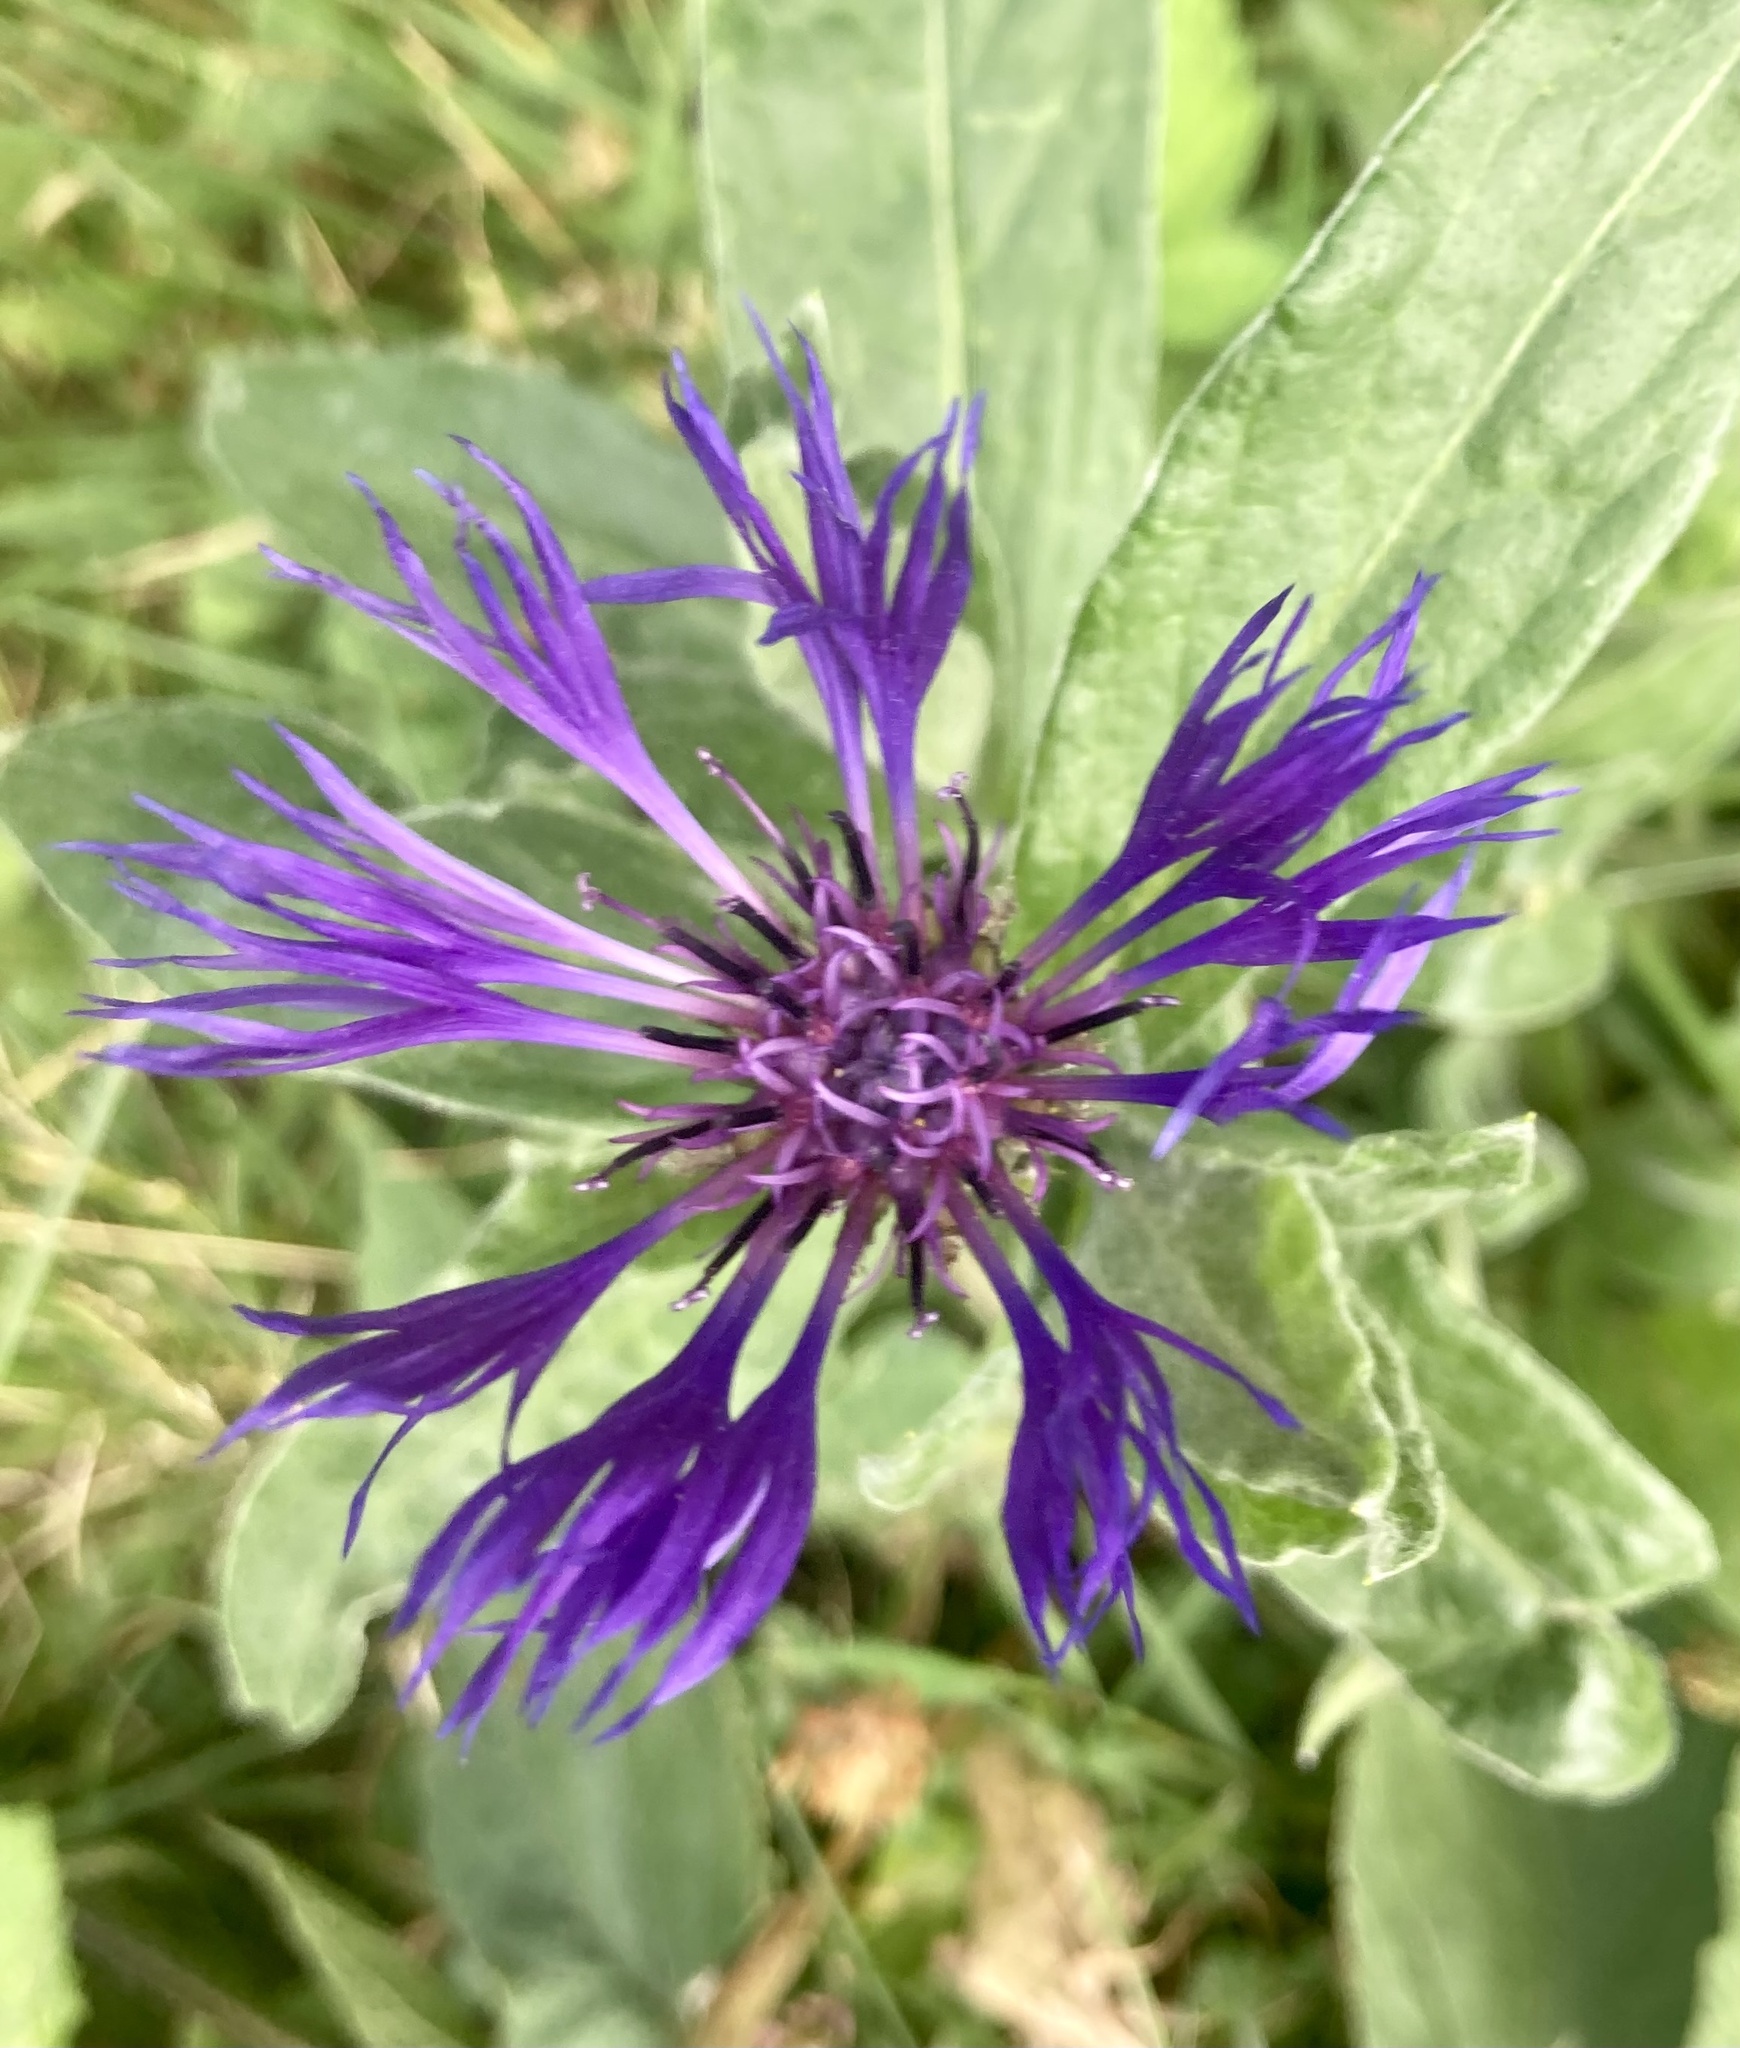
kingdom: Plantae
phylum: Tracheophyta
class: Magnoliopsida
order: Asterales
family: Asteraceae
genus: Centaurea
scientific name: Centaurea montana
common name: Perennial cornflower
